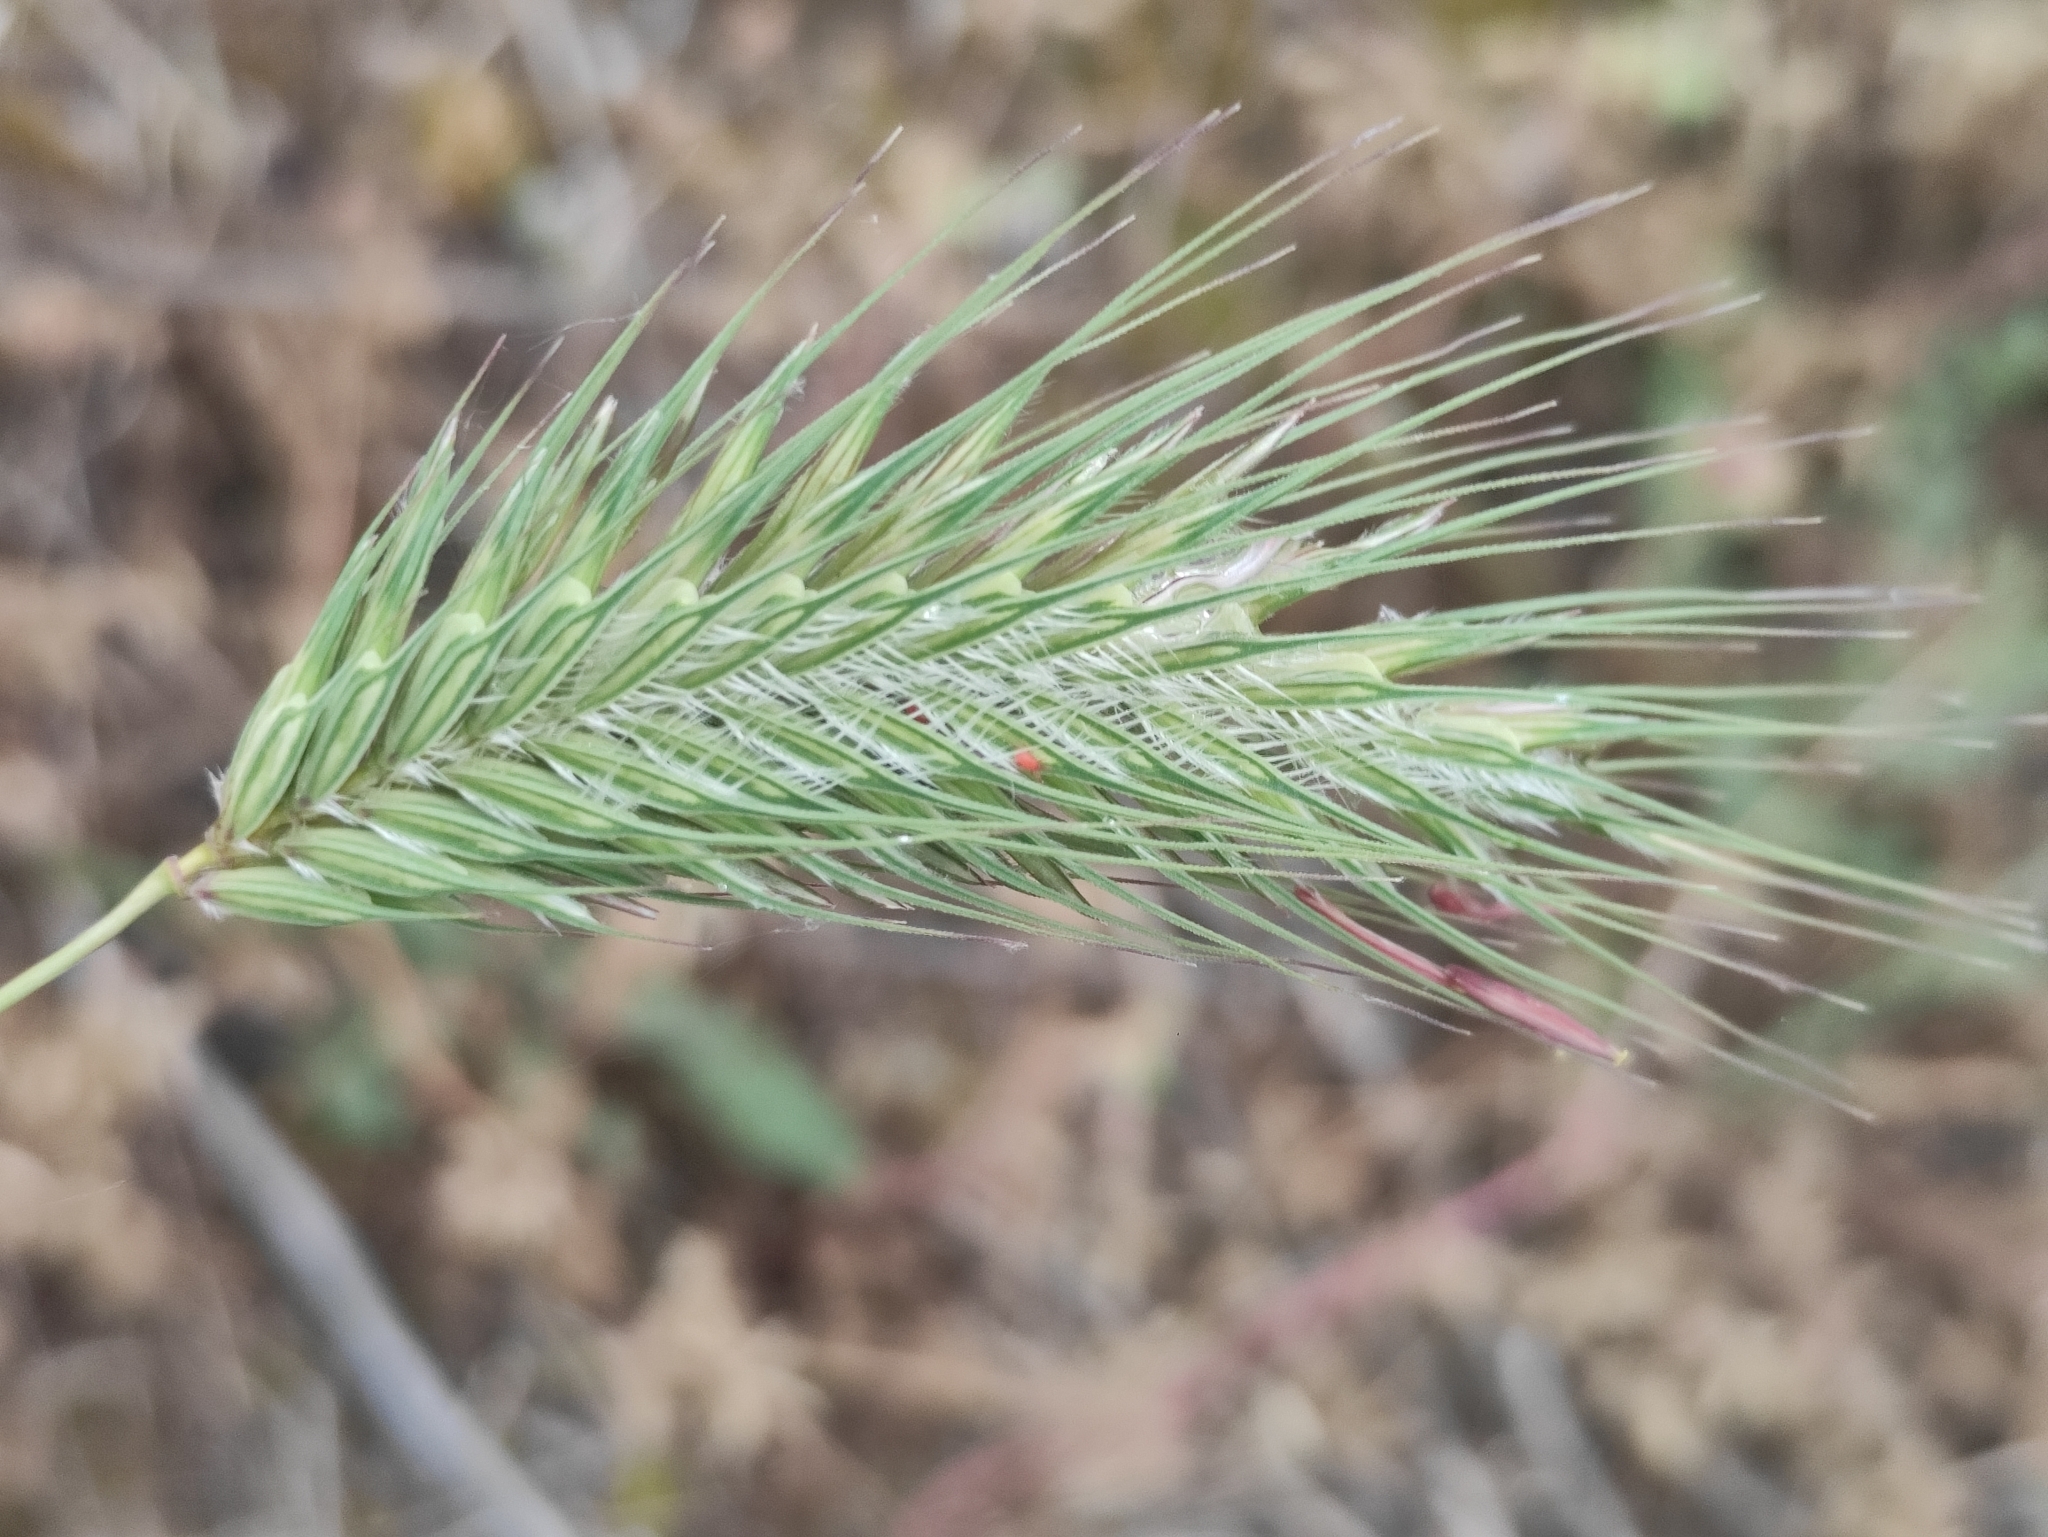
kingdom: Plantae
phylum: Tracheophyta
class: Liliopsida
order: Poales
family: Poaceae
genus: Dasypyrum
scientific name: Dasypyrum villosum
